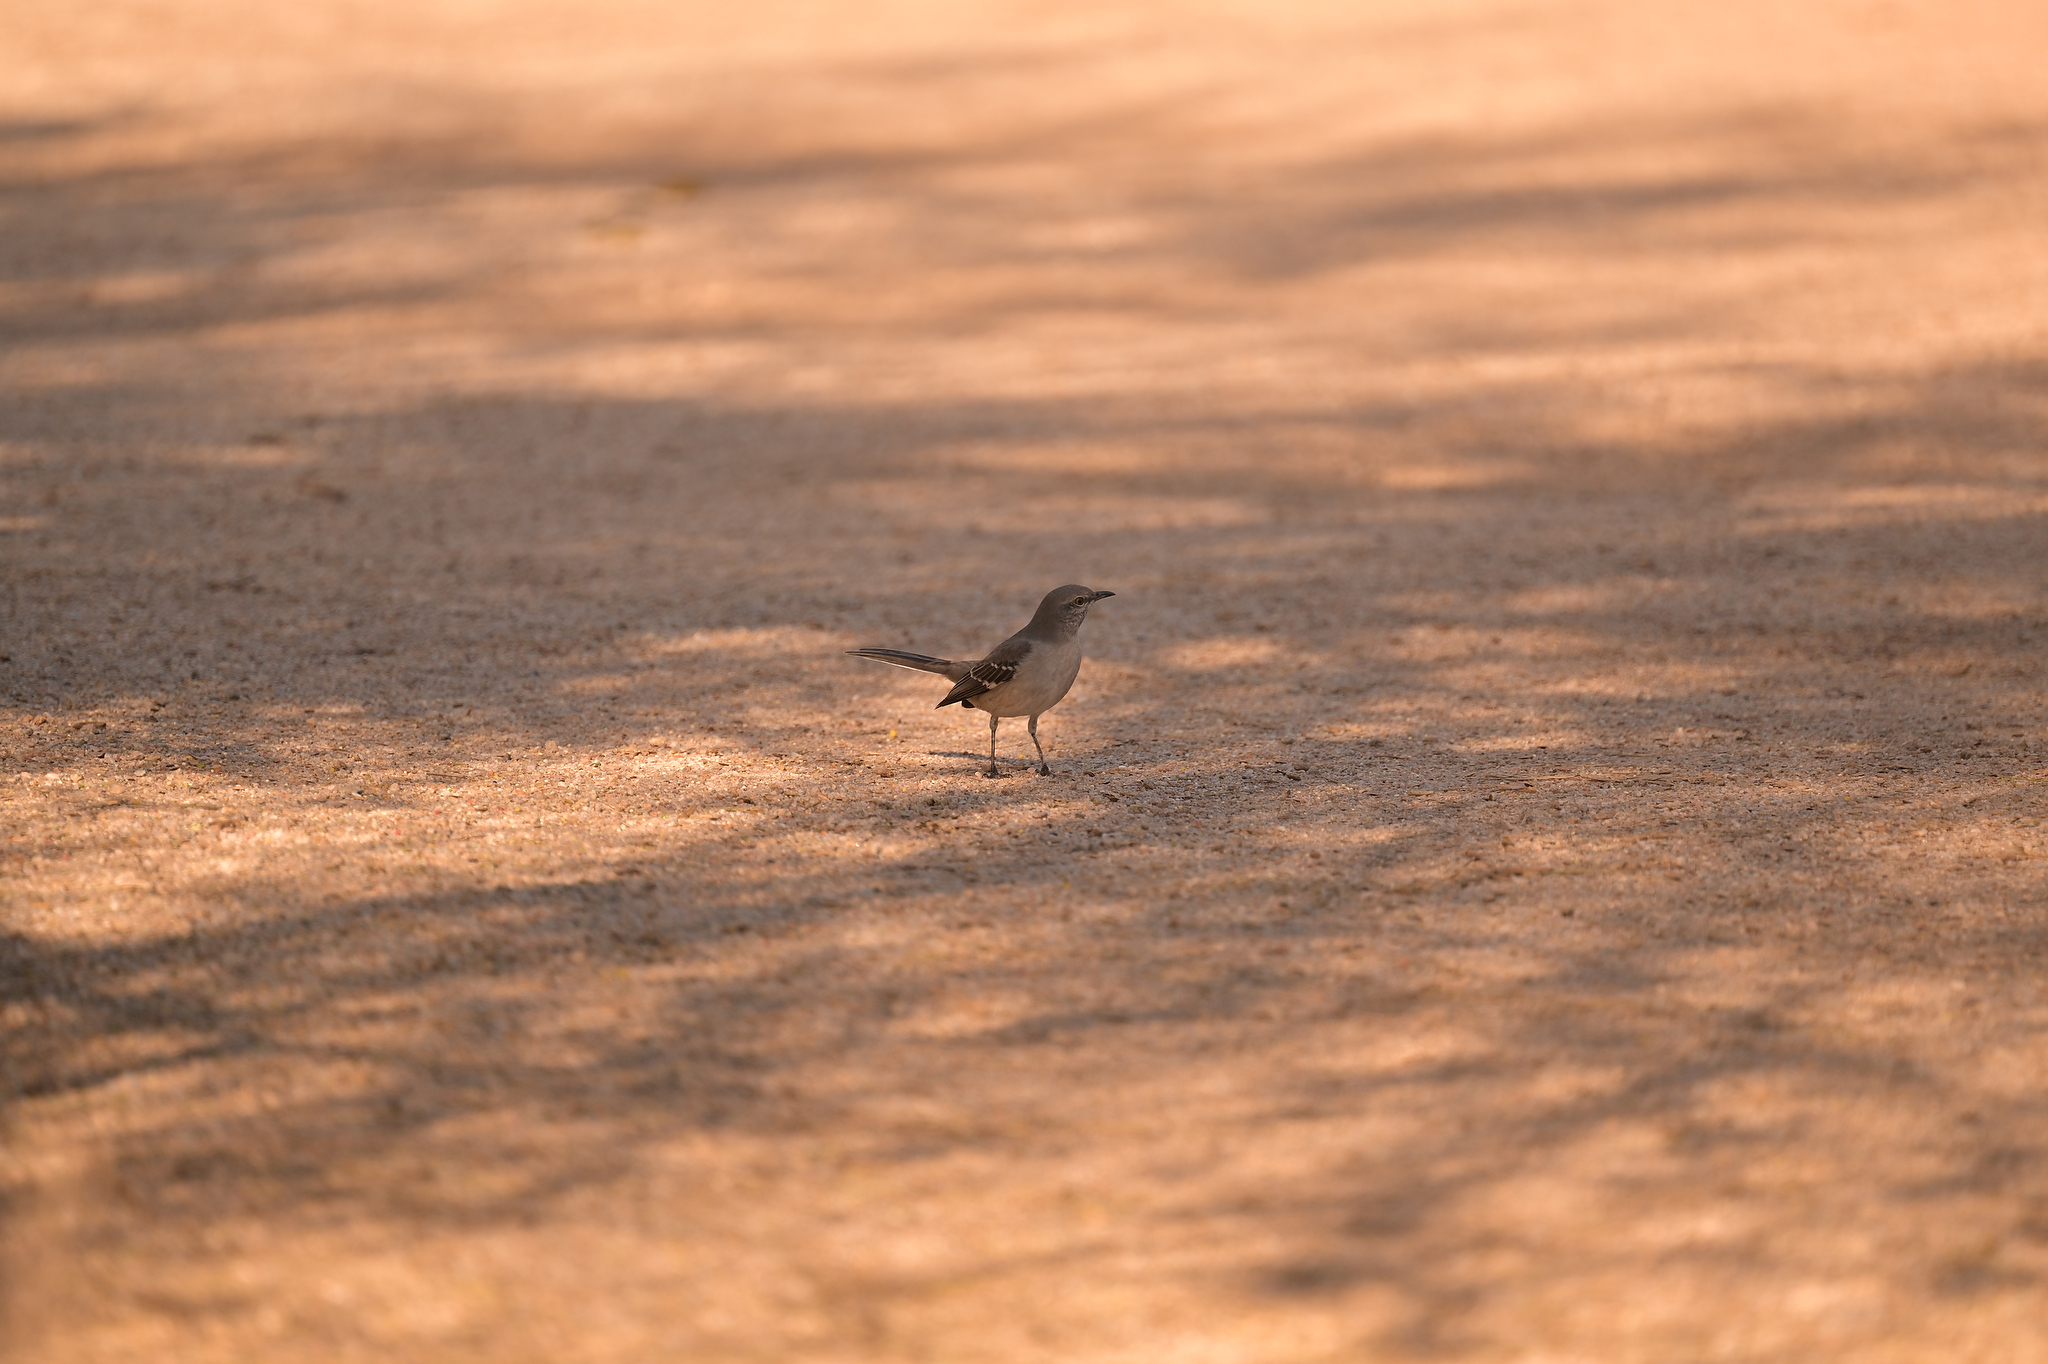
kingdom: Animalia
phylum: Chordata
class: Aves
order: Passeriformes
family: Mimidae
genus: Mimus
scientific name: Mimus polyglottos
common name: Northern mockingbird
